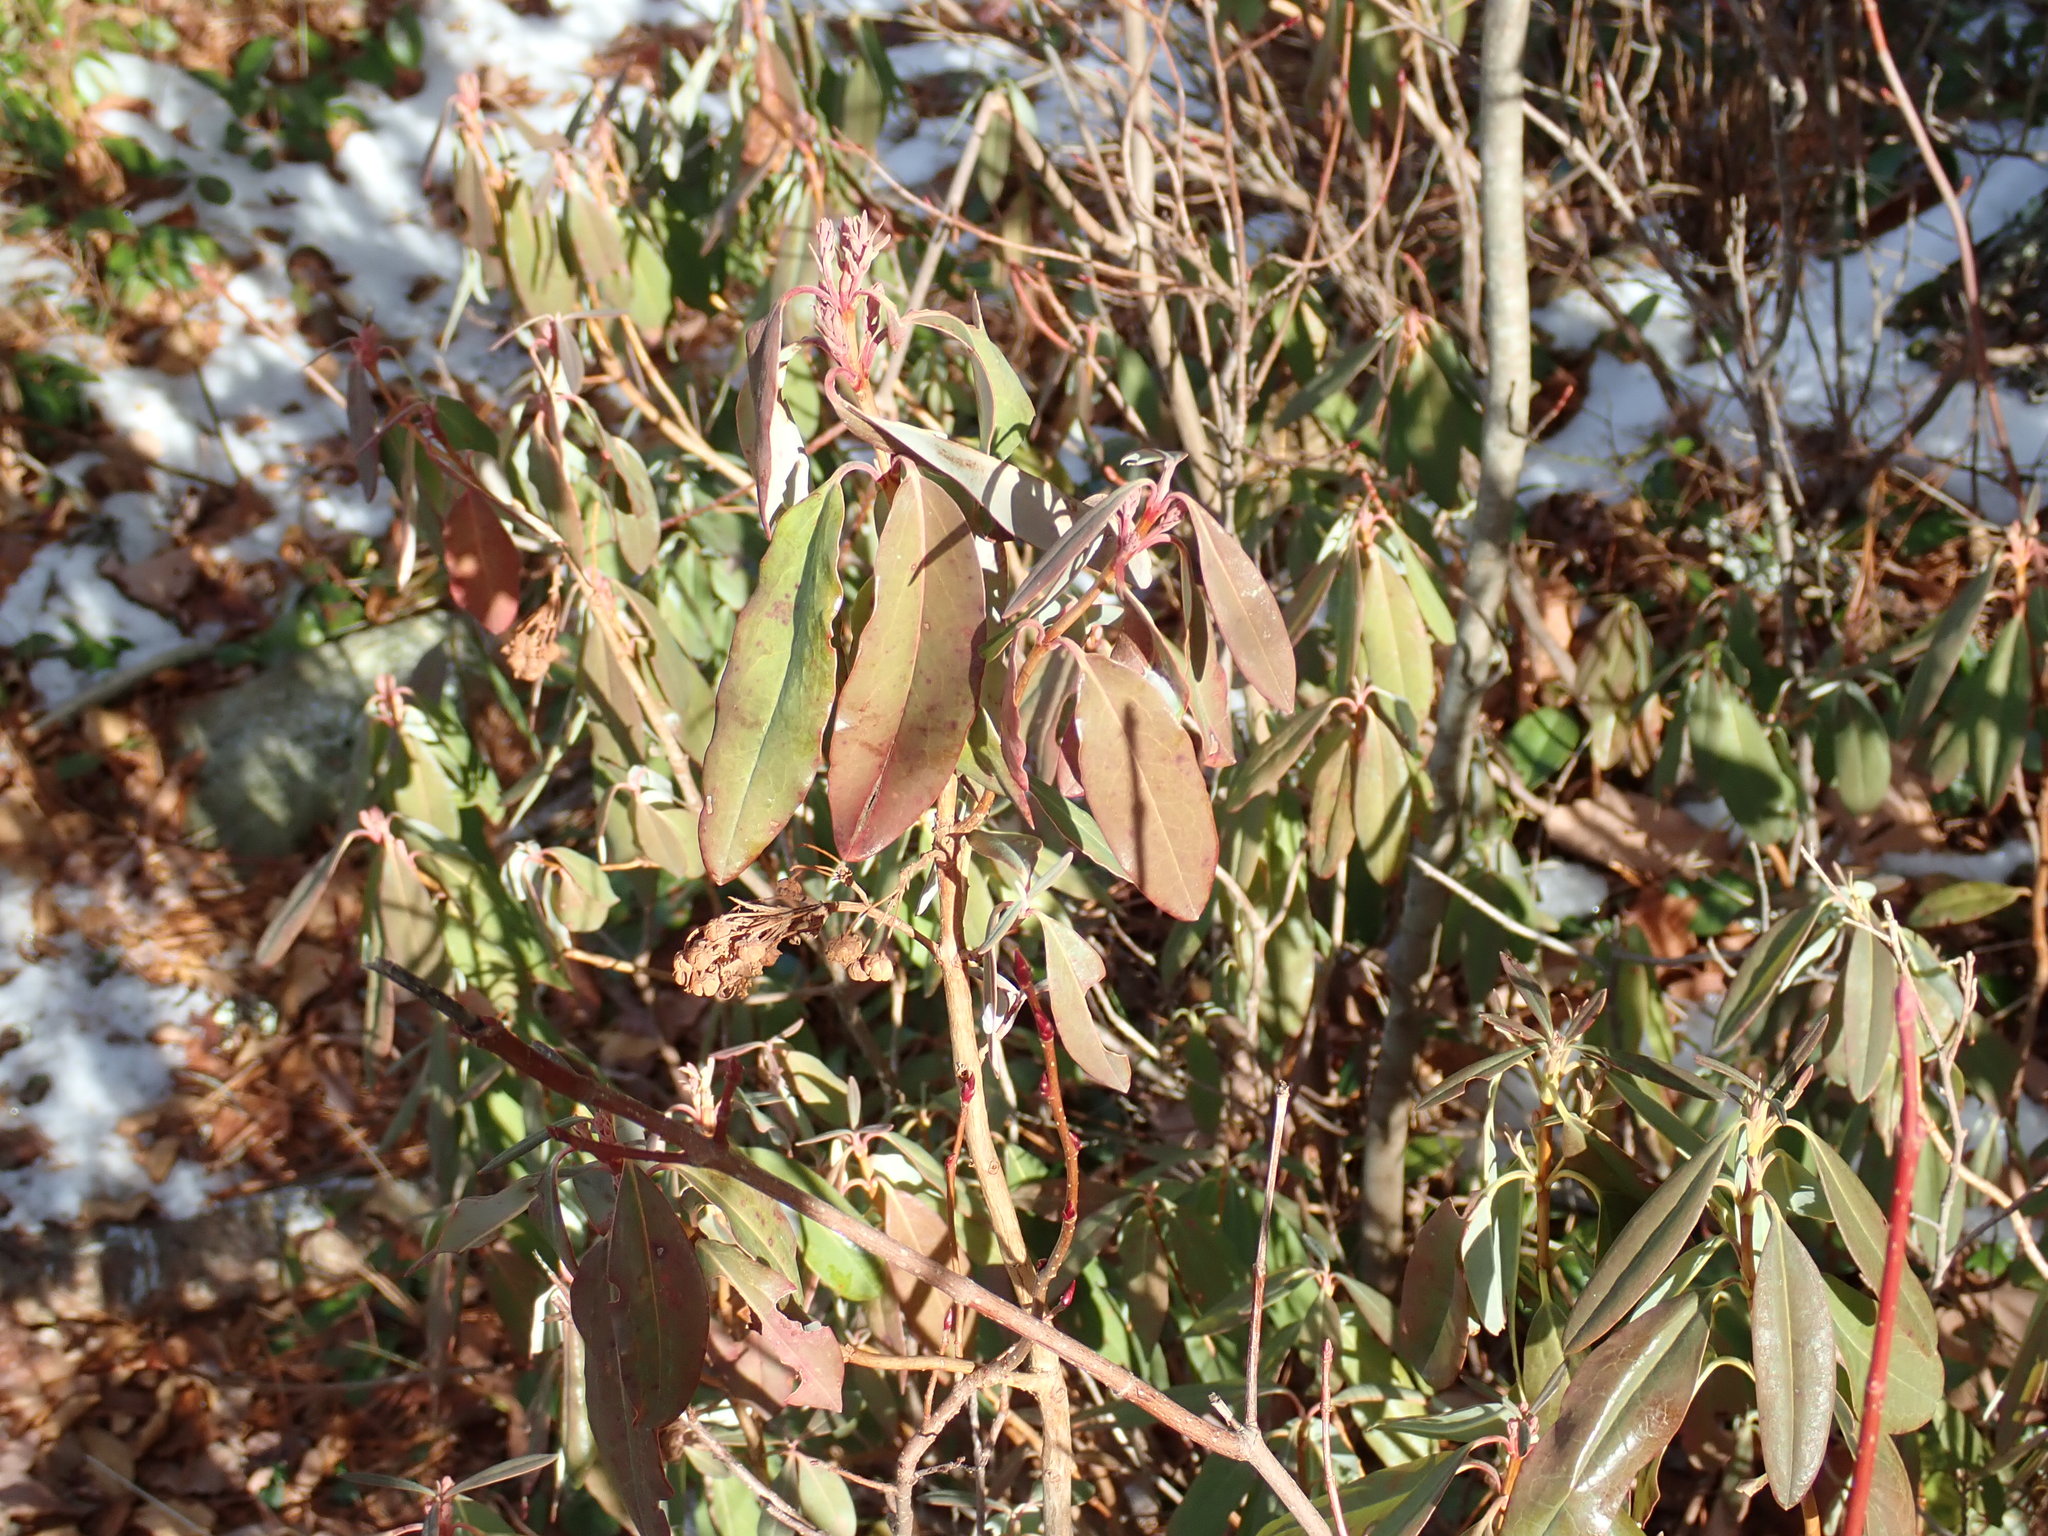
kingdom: Plantae
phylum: Tracheophyta
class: Magnoliopsida
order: Ericales
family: Ericaceae
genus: Kalmia
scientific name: Kalmia angustifolia
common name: Sheep-laurel
